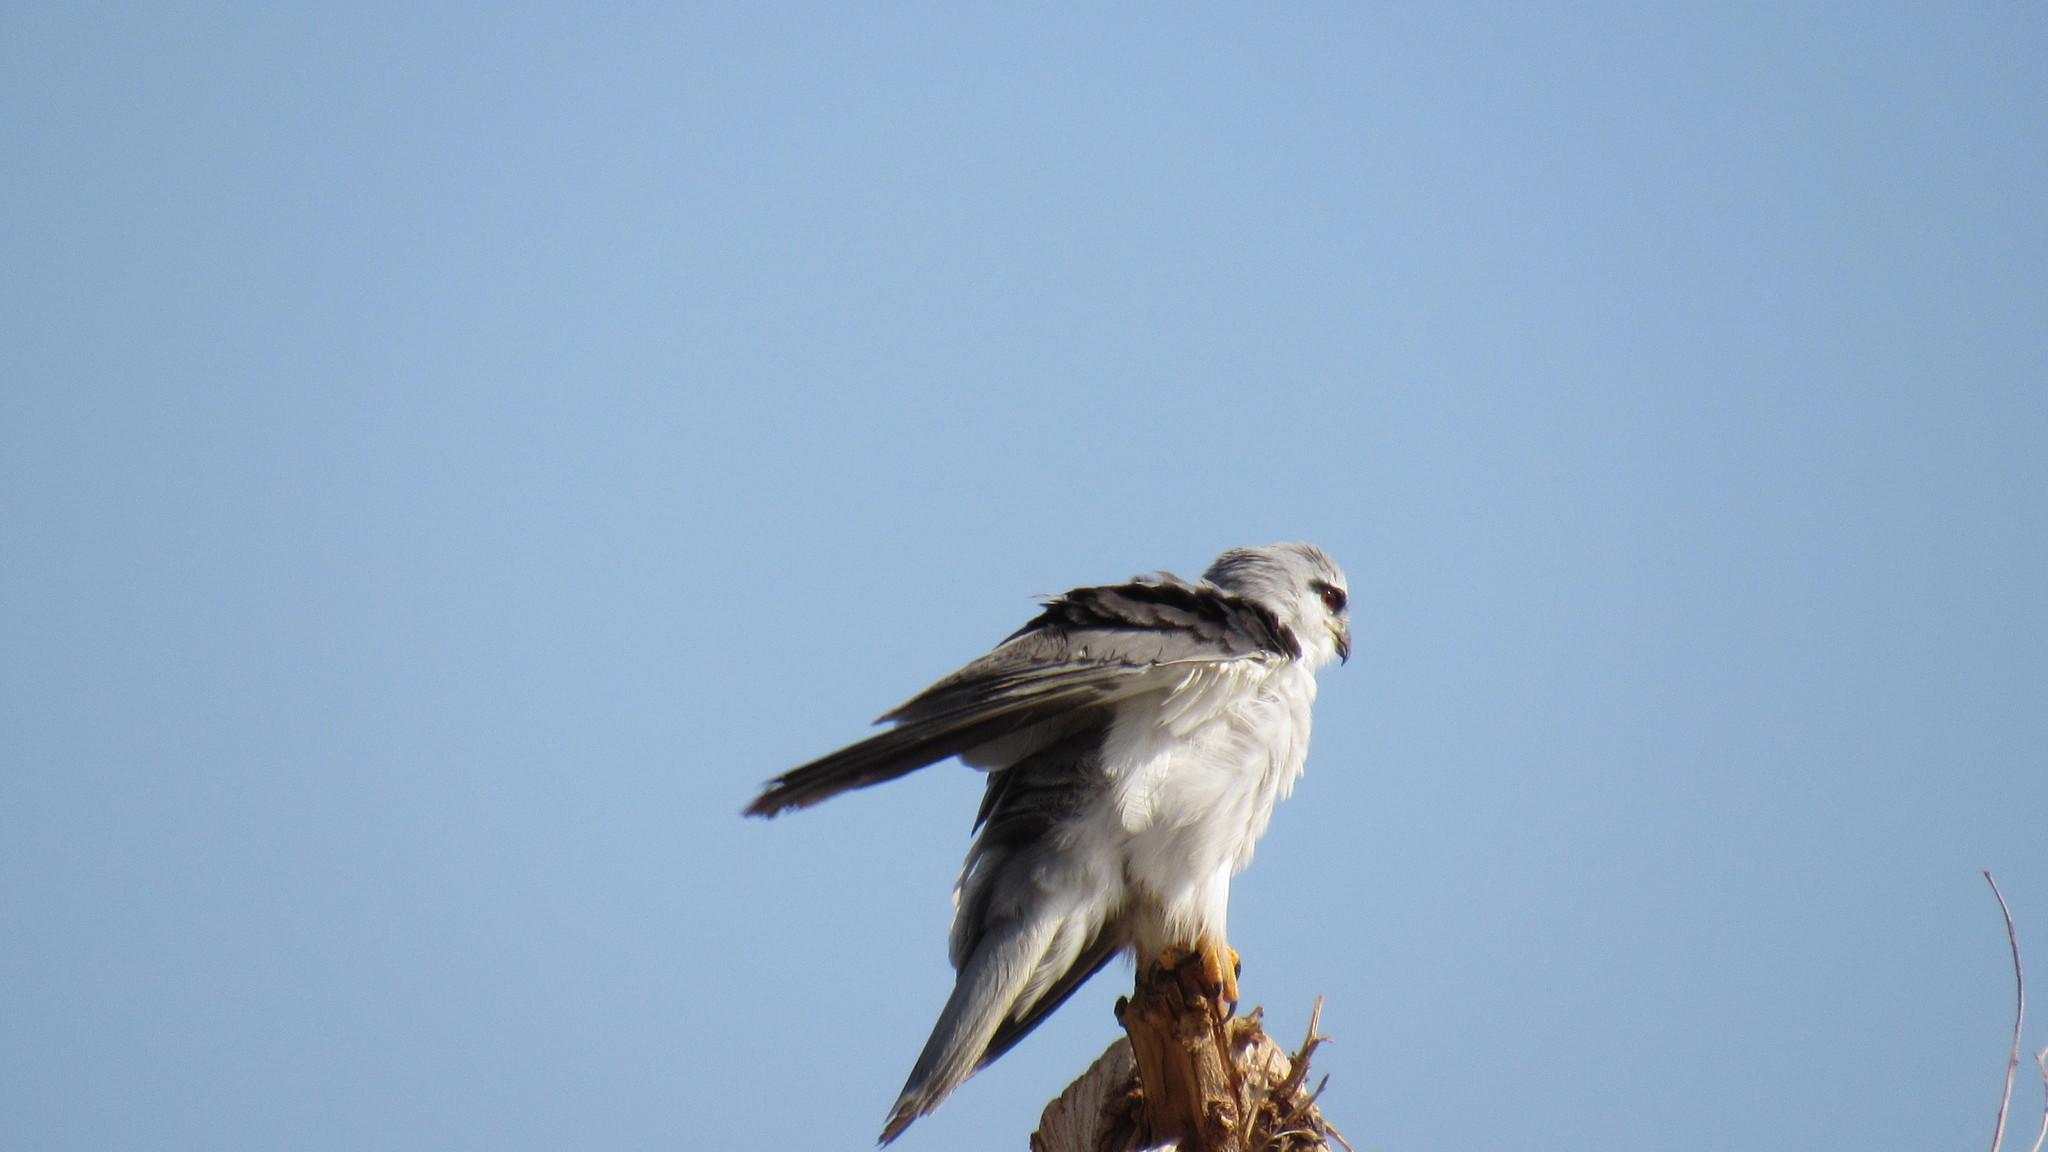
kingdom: Animalia
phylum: Chordata
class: Aves
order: Accipitriformes
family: Accipitridae
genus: Elanus
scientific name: Elanus caeruleus
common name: Black-winged kite
